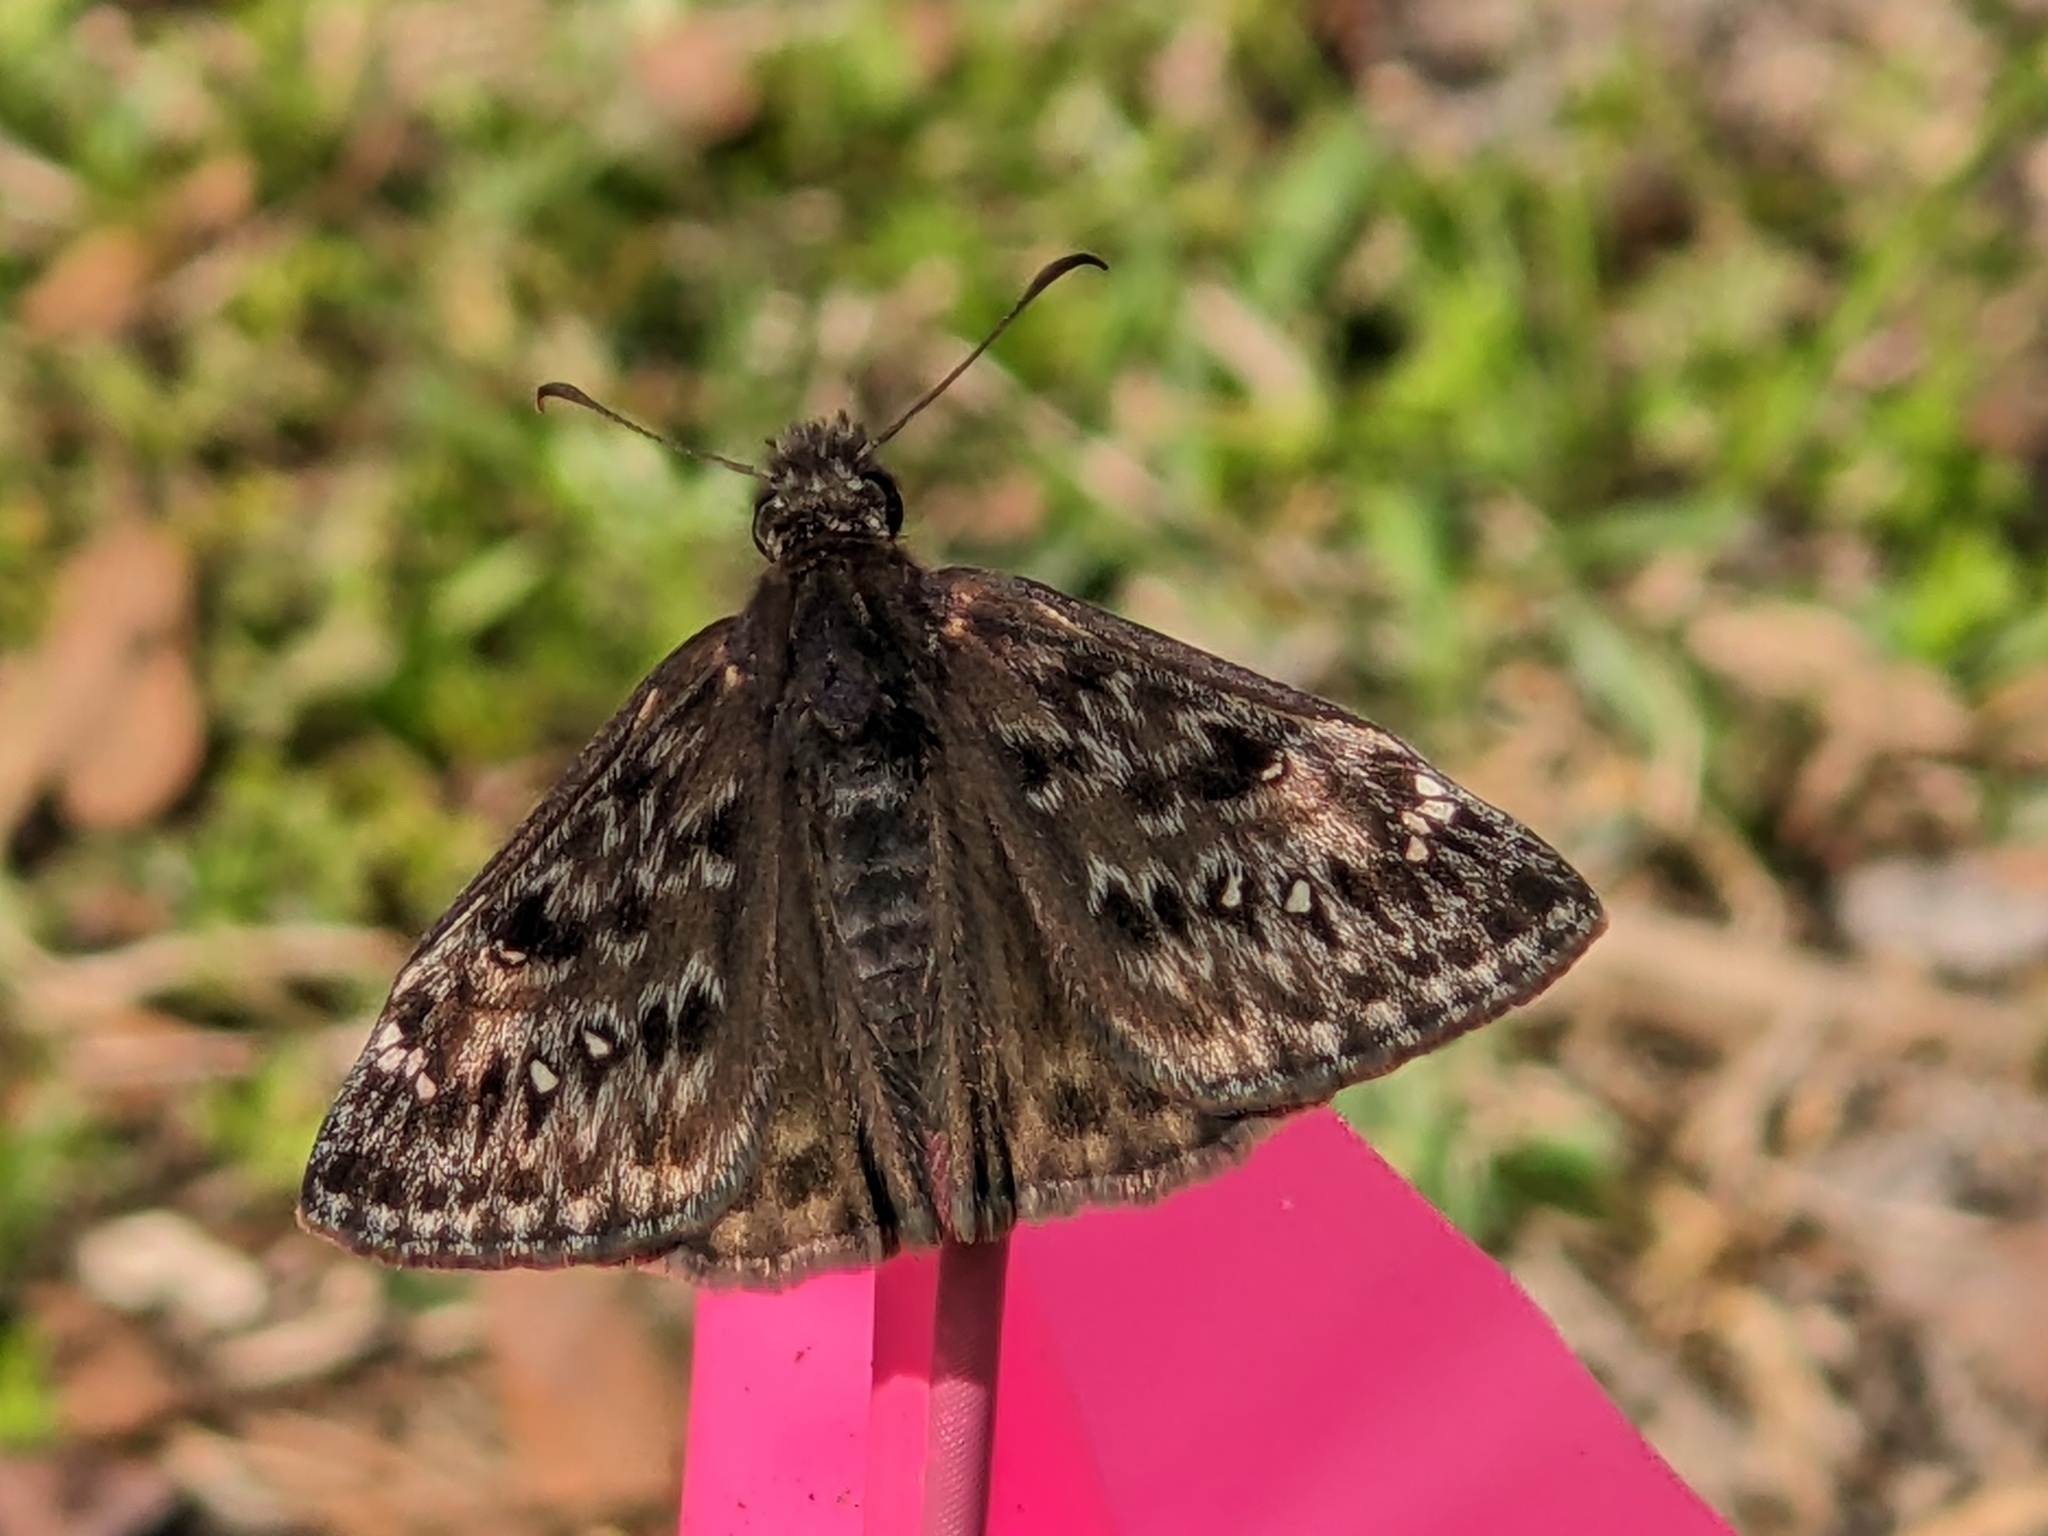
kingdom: Animalia
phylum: Arthropoda
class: Insecta
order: Lepidoptera
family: Hesperiidae
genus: Erynnis
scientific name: Erynnis juvenalis
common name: Juvenal's duskywing
